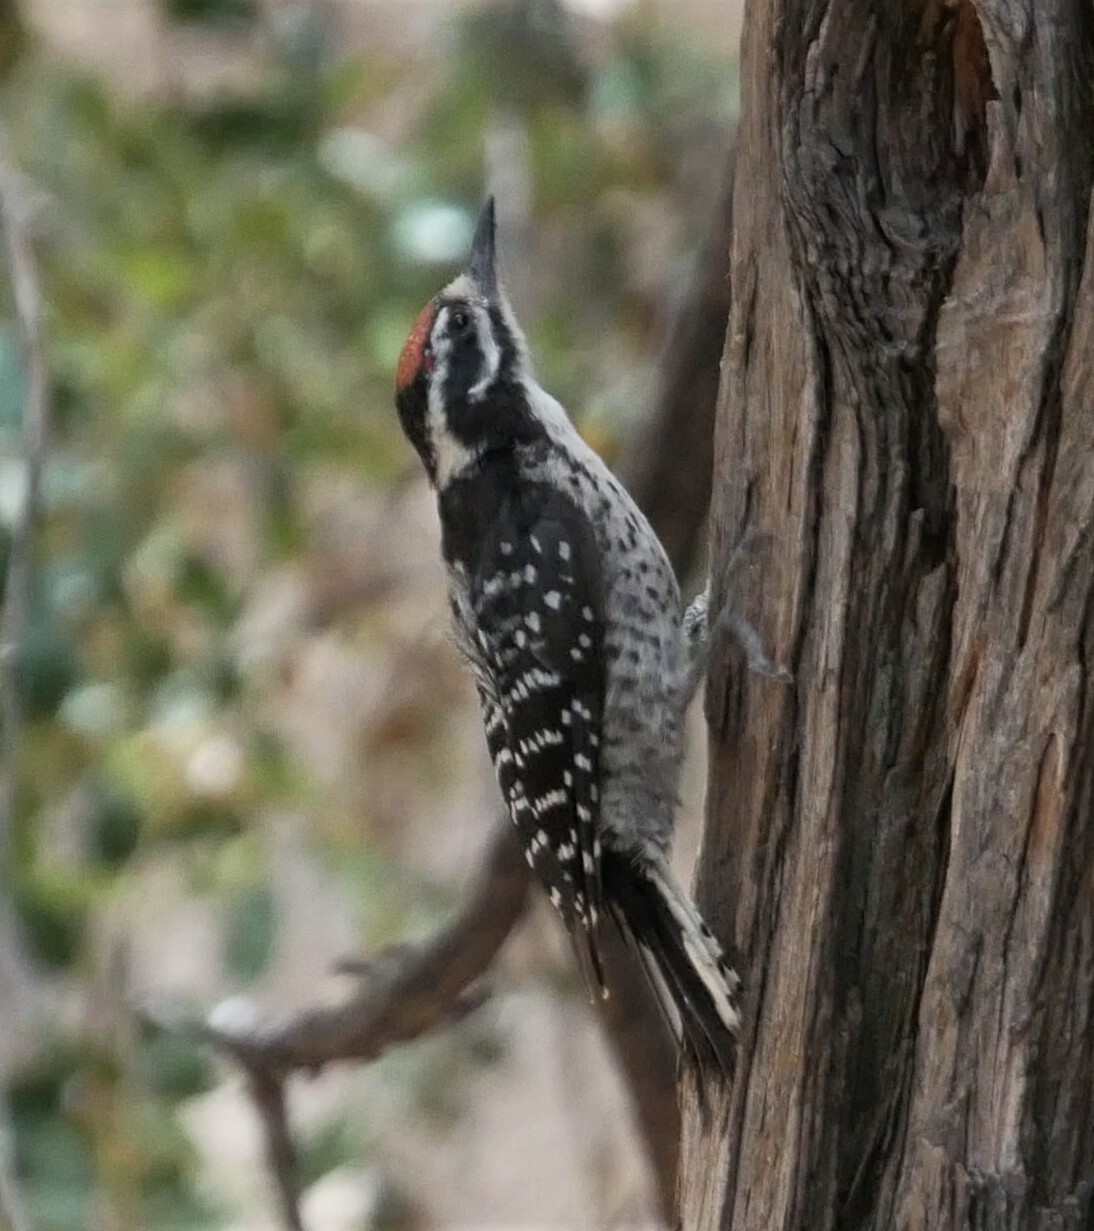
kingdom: Animalia
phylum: Chordata
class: Aves
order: Piciformes
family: Picidae
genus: Dryobates
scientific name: Dryobates nuttallii
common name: Nuttall's woodpecker
